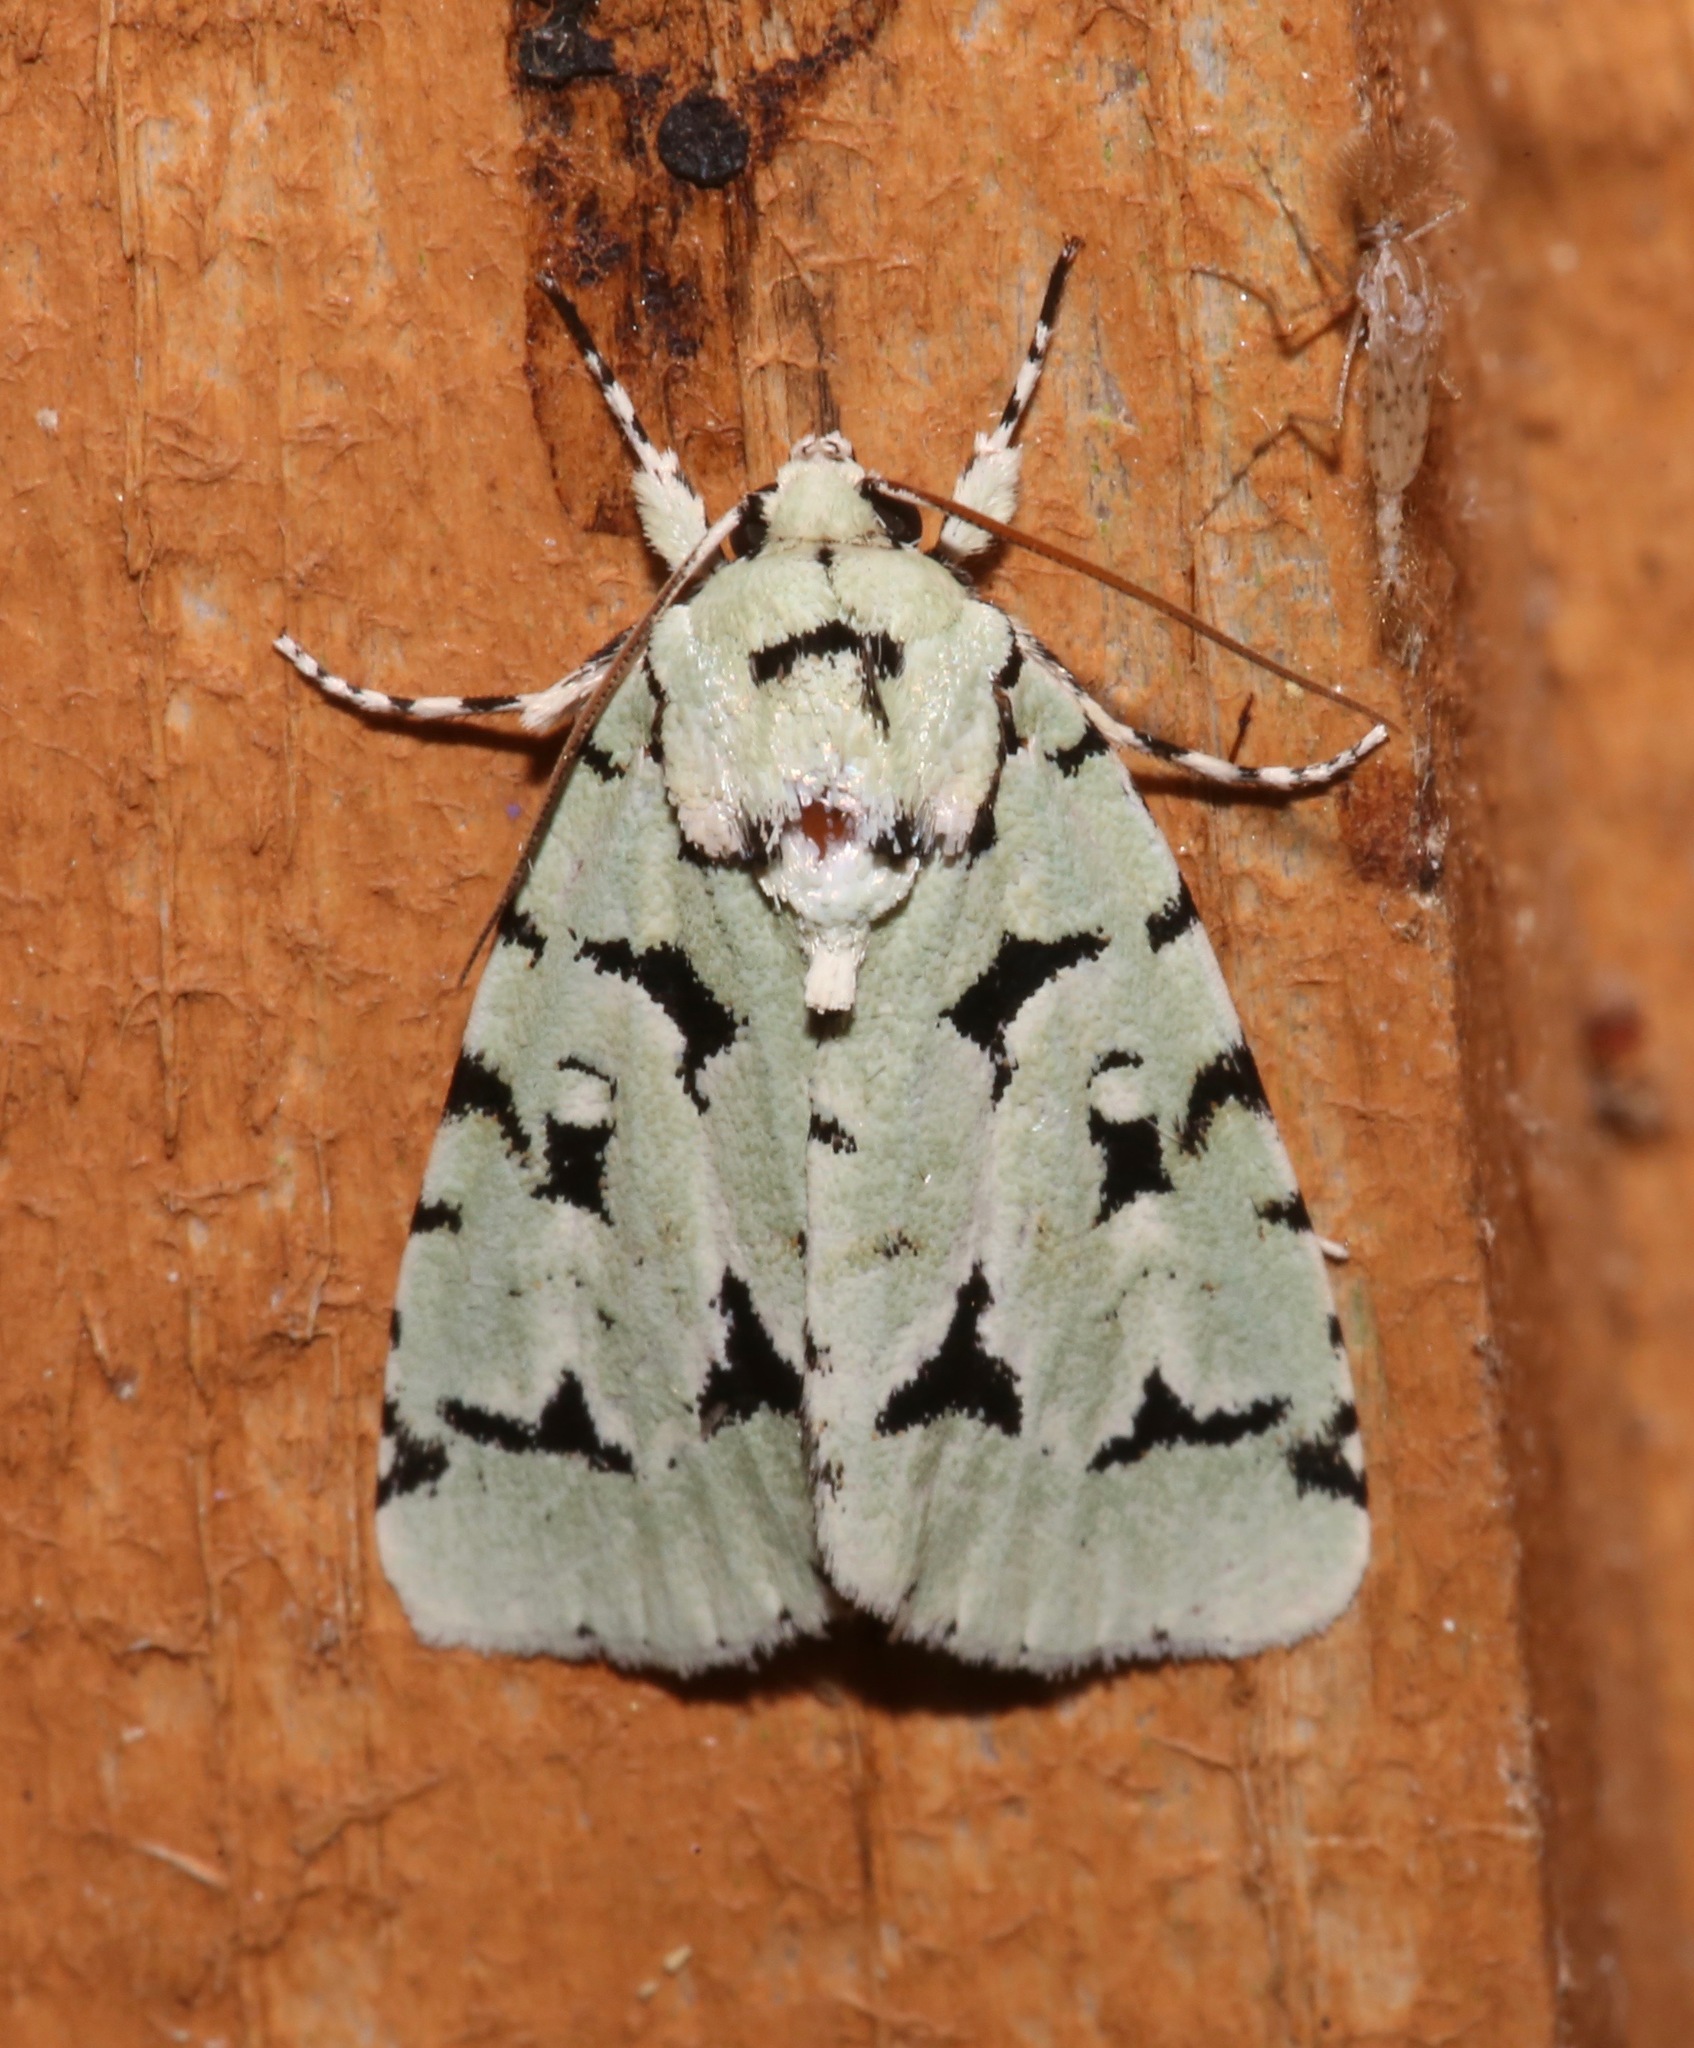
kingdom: Animalia
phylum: Arthropoda
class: Insecta
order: Lepidoptera
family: Noctuidae
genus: Acronicta
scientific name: Acronicta fallax
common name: Green marvel
